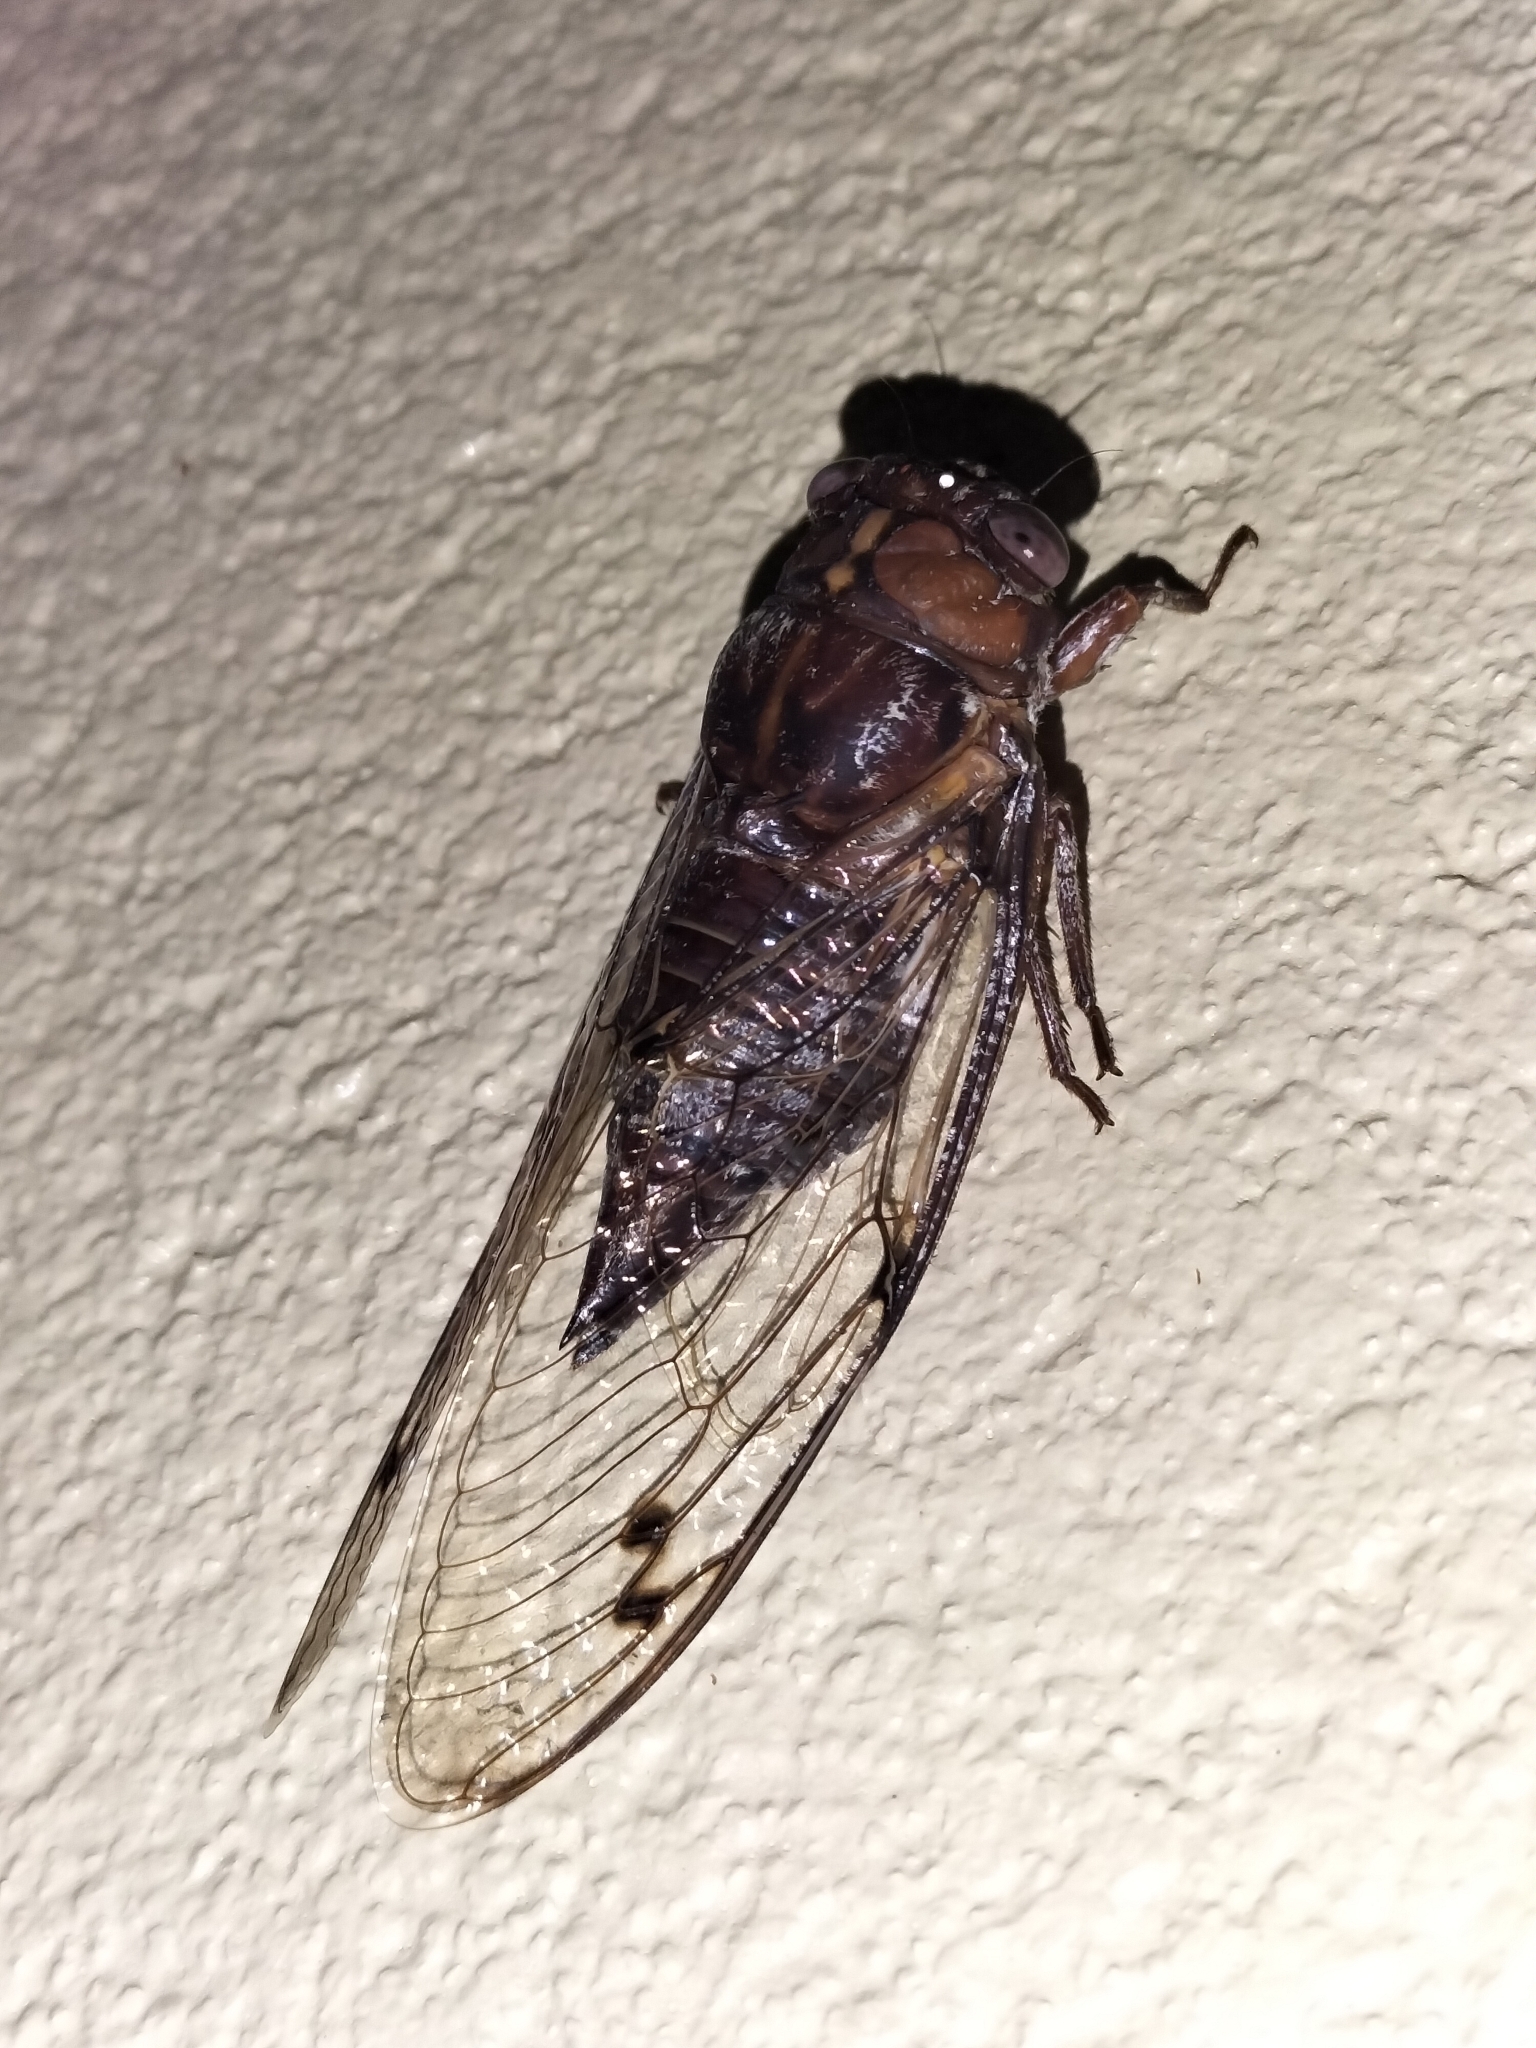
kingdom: Animalia
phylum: Arthropoda
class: Insecta
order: Hemiptera
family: Cicadidae
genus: Aleeta
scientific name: Aleeta curvicosta
